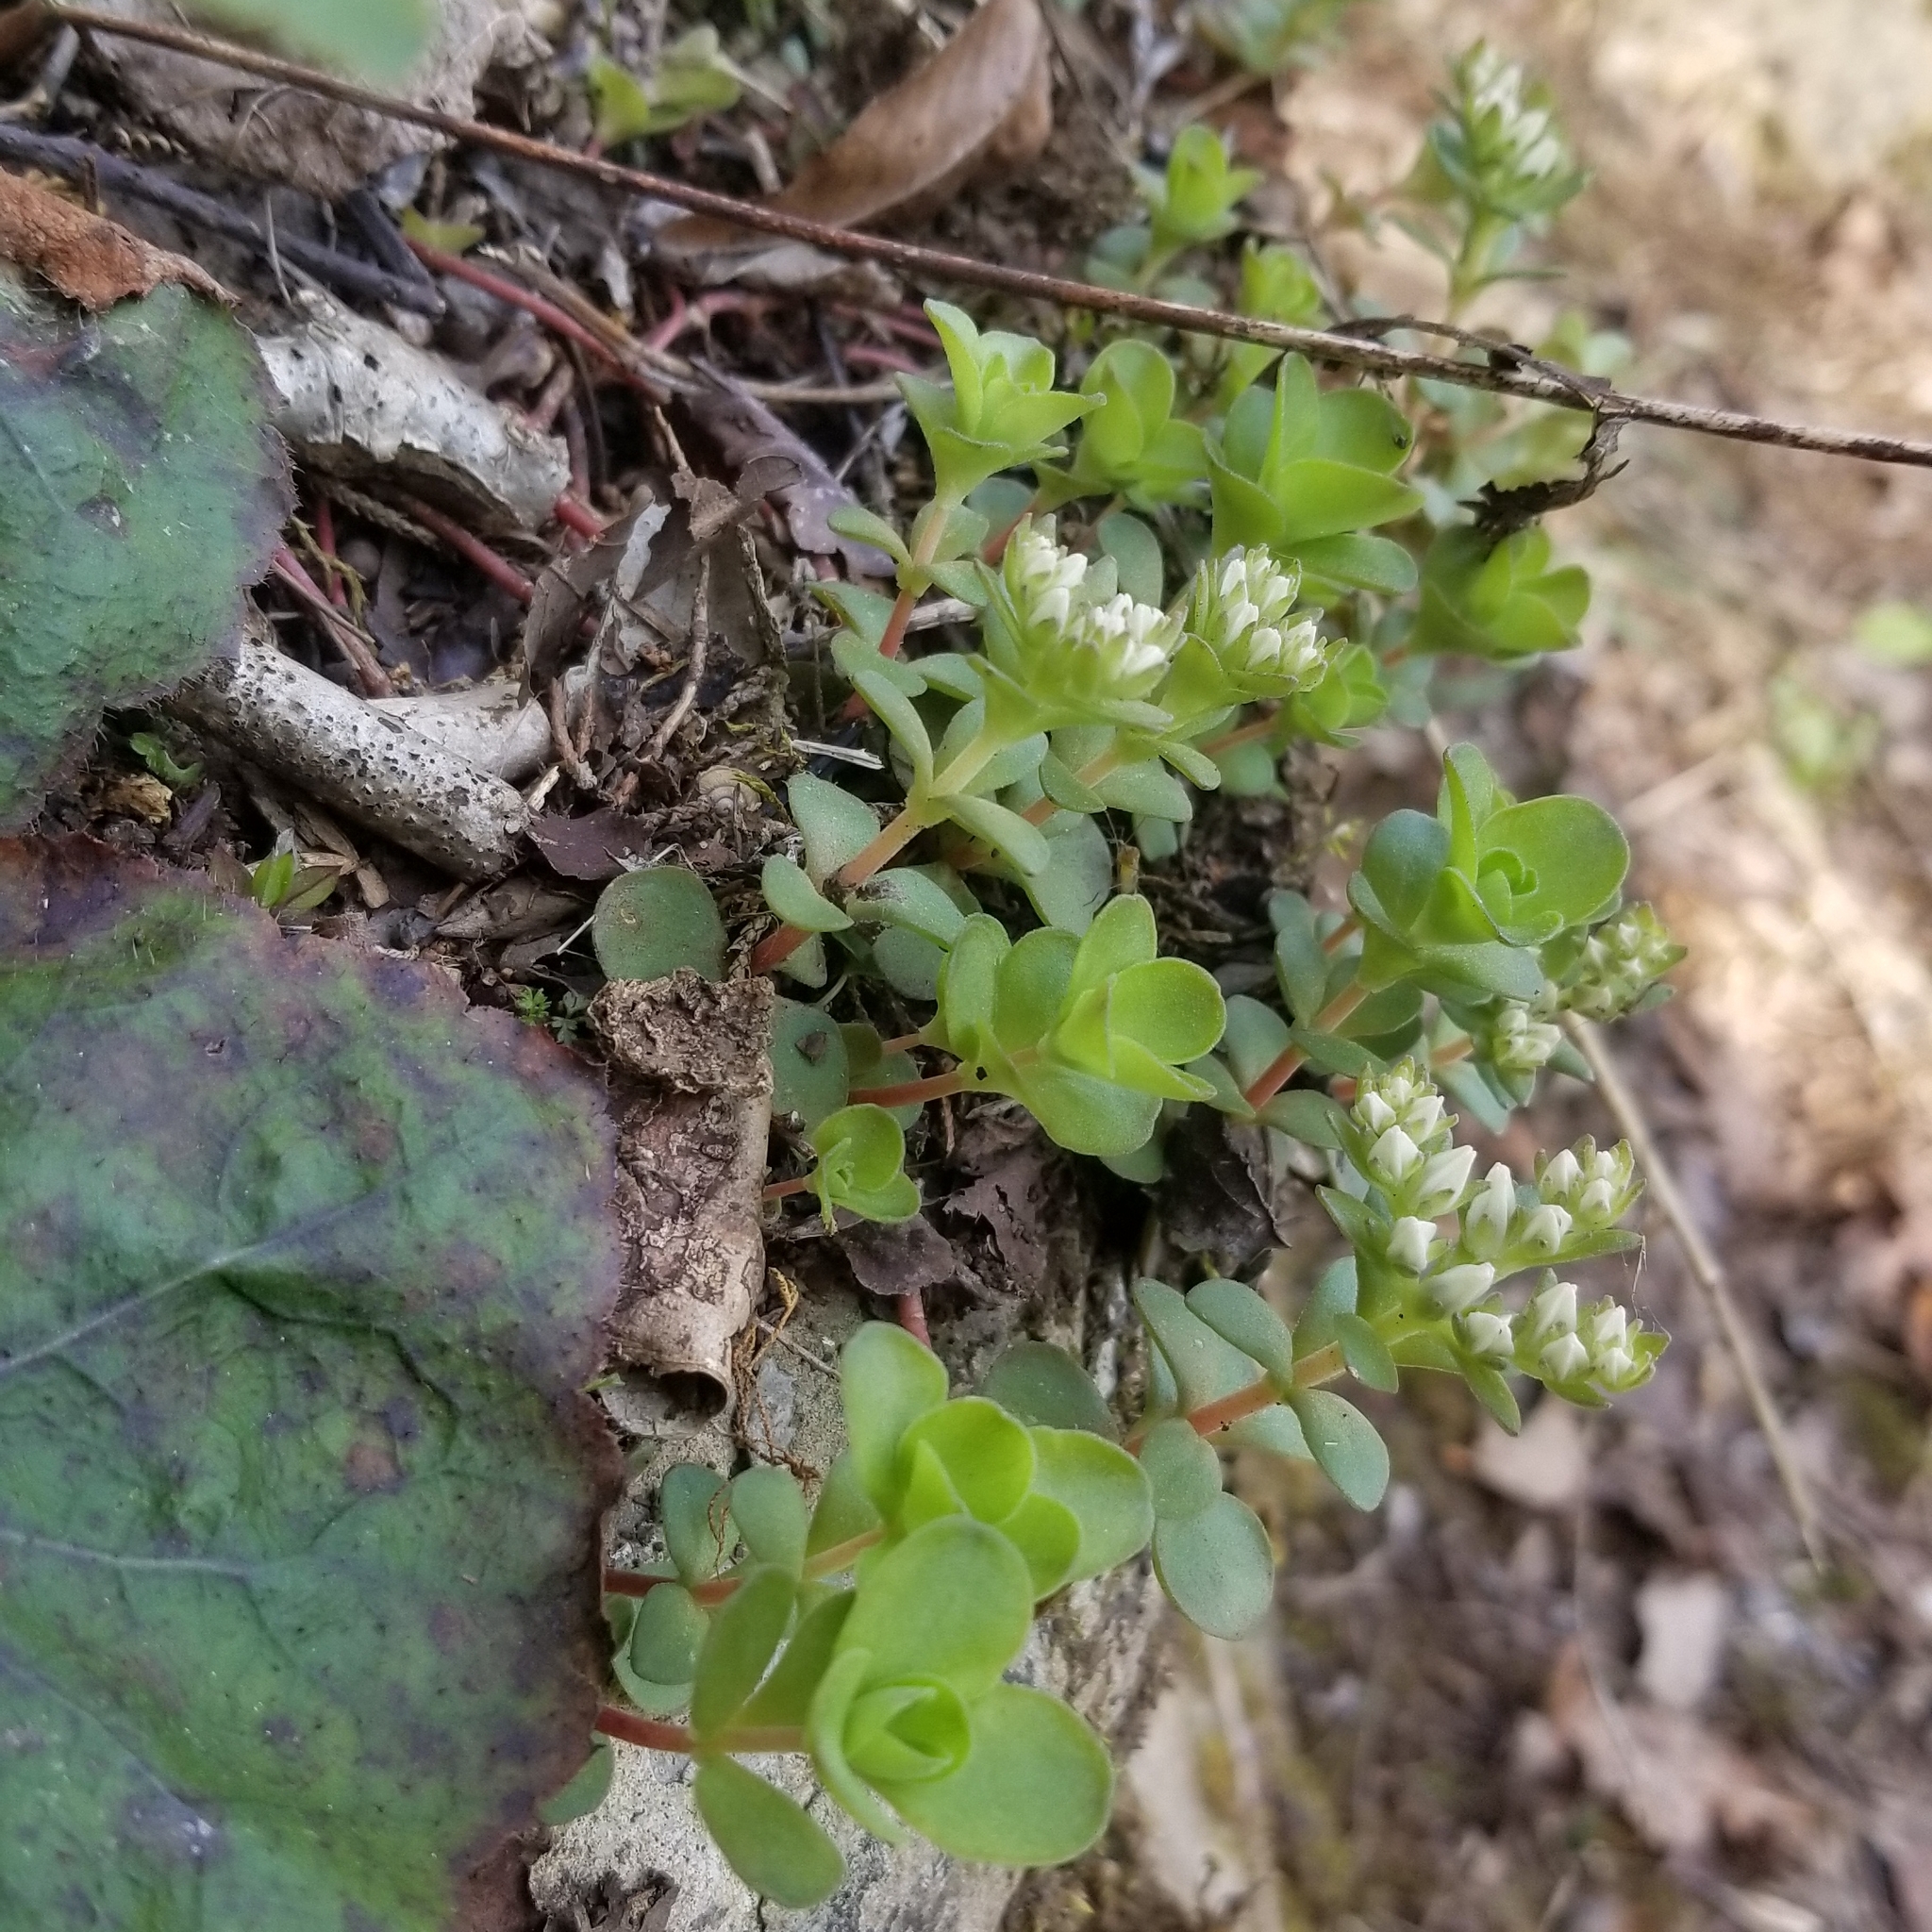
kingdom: Plantae
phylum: Tracheophyta
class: Magnoliopsida
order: Saxifragales
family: Crassulaceae
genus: Sedum
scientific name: Sedum ternatum
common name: Wild stonecrop
